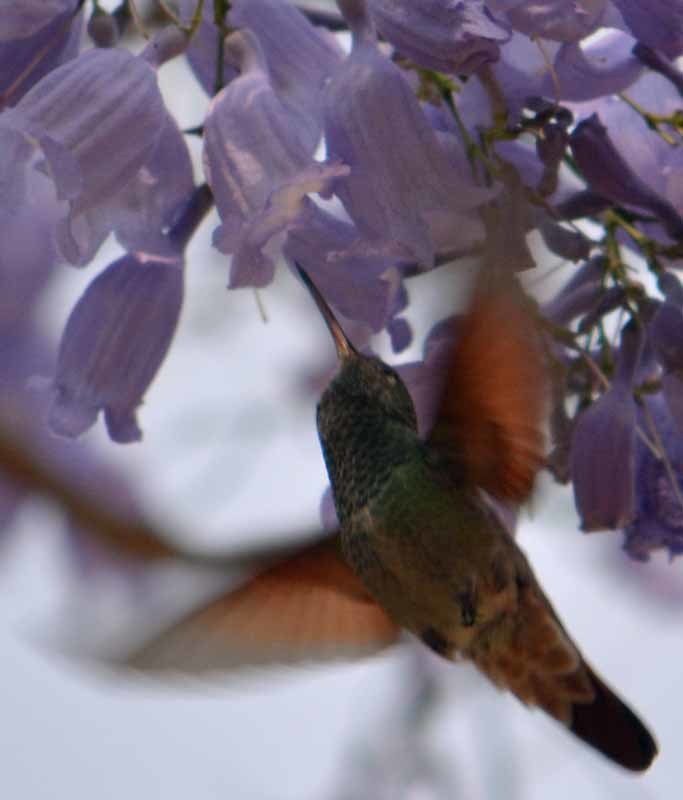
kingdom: Animalia
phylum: Chordata
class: Aves
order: Apodiformes
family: Trochilidae
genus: Saucerottia
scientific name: Saucerottia beryllina
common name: Berylline hummingbird
